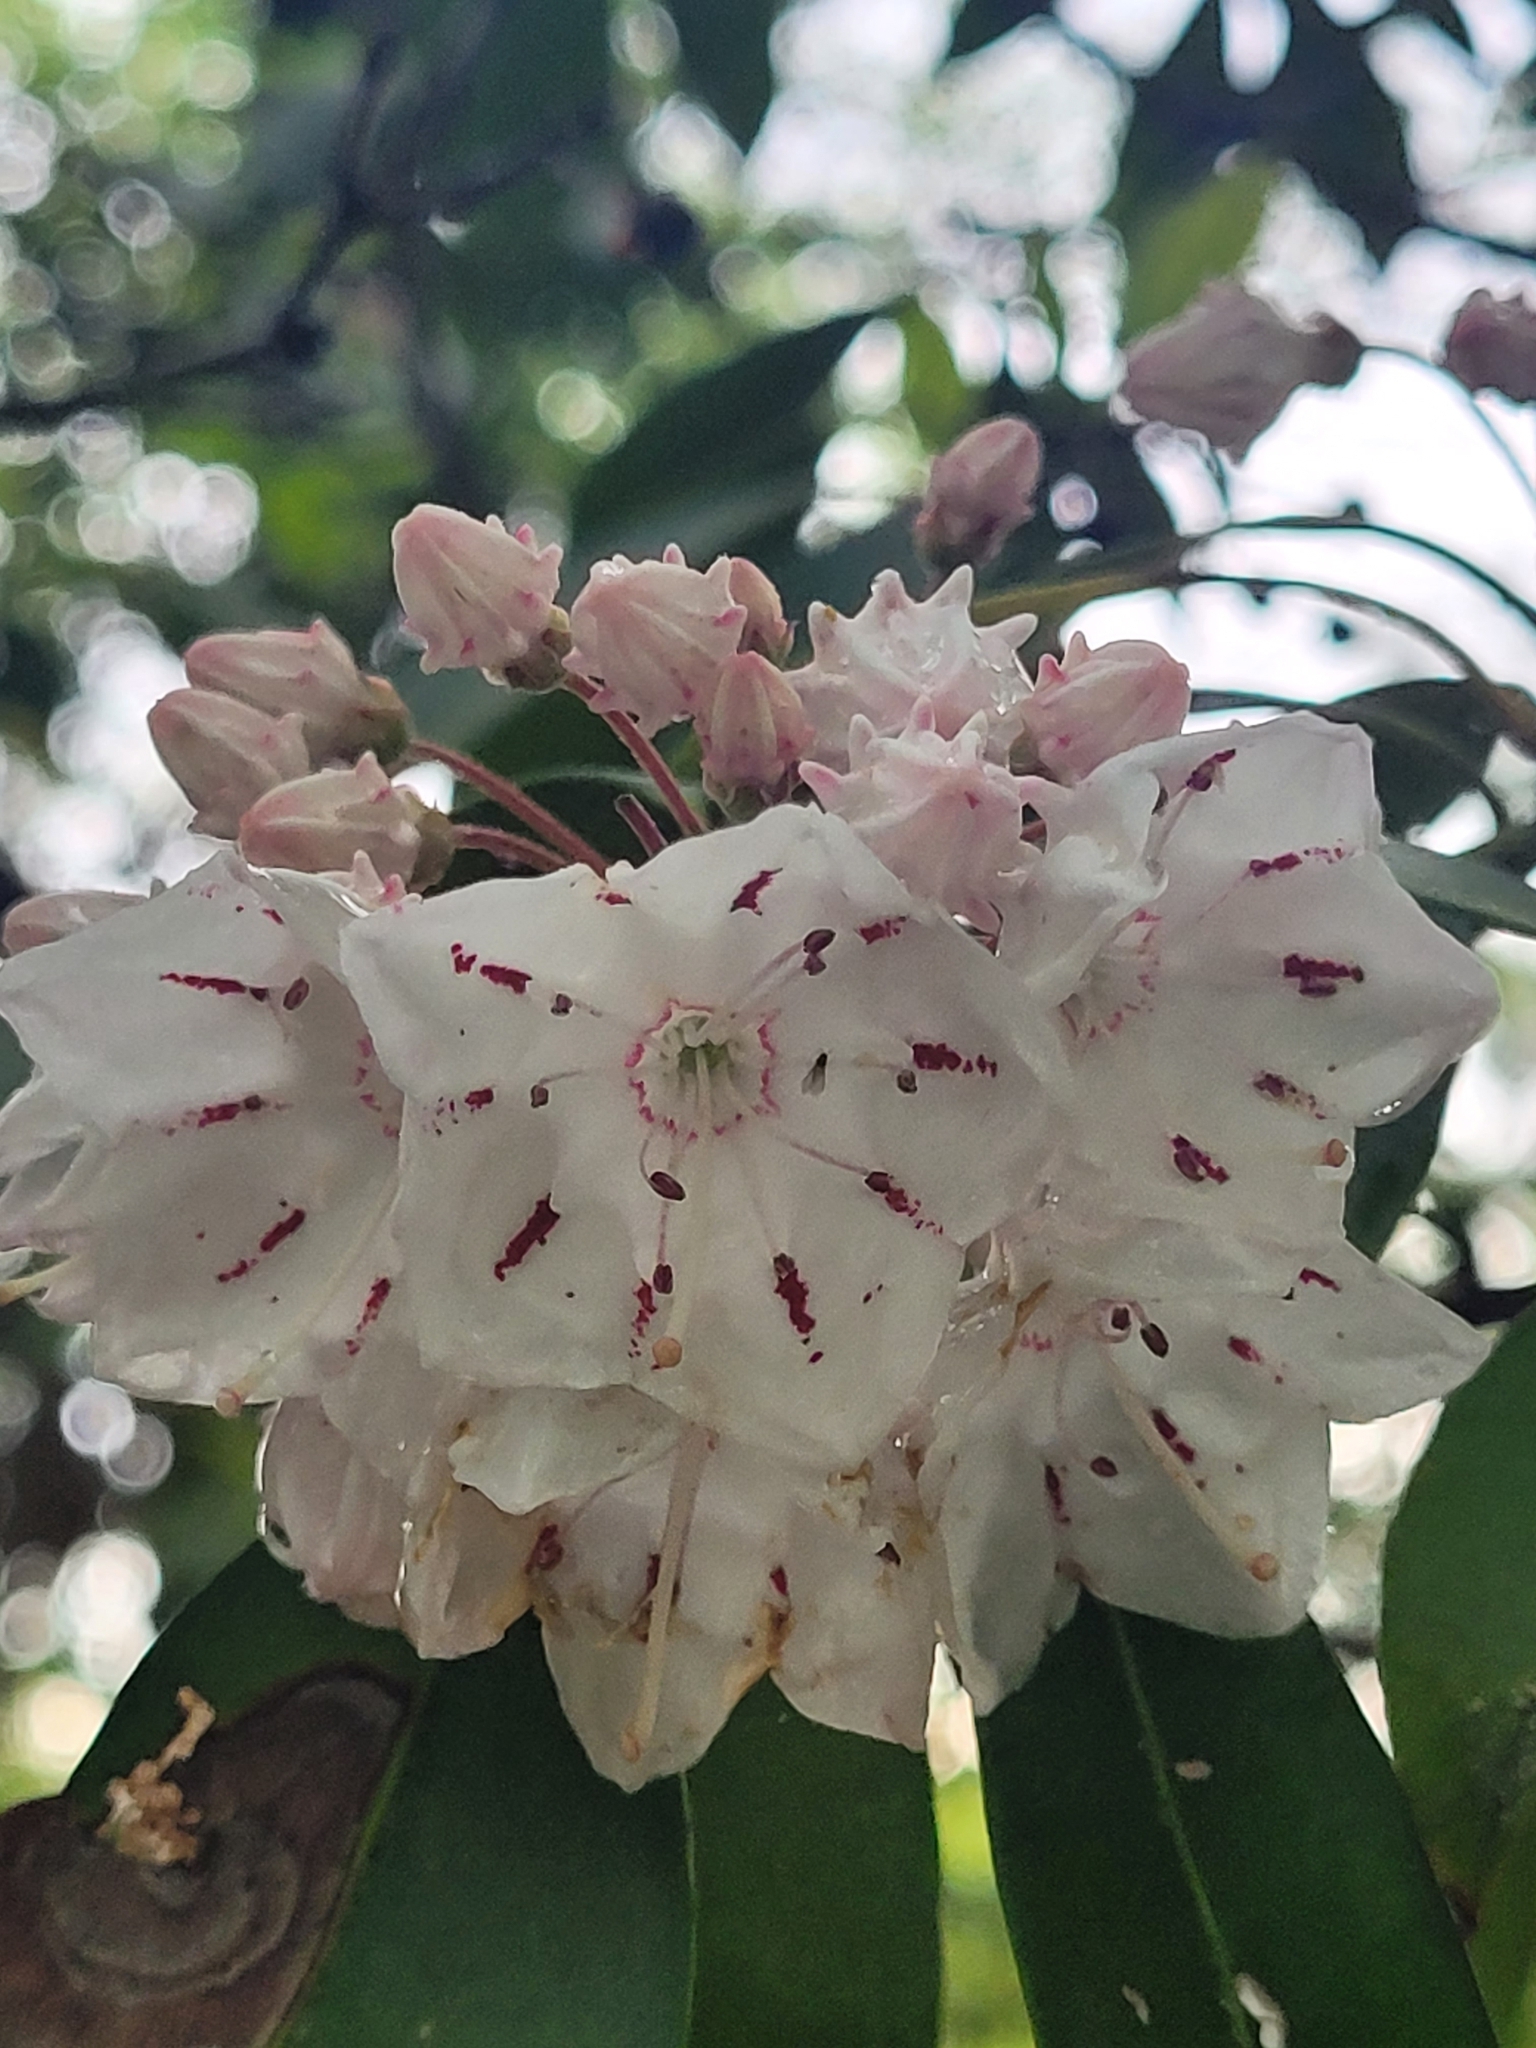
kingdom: Plantae
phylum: Tracheophyta
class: Magnoliopsida
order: Ericales
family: Ericaceae
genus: Kalmia
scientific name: Kalmia latifolia
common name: Mountain-laurel
